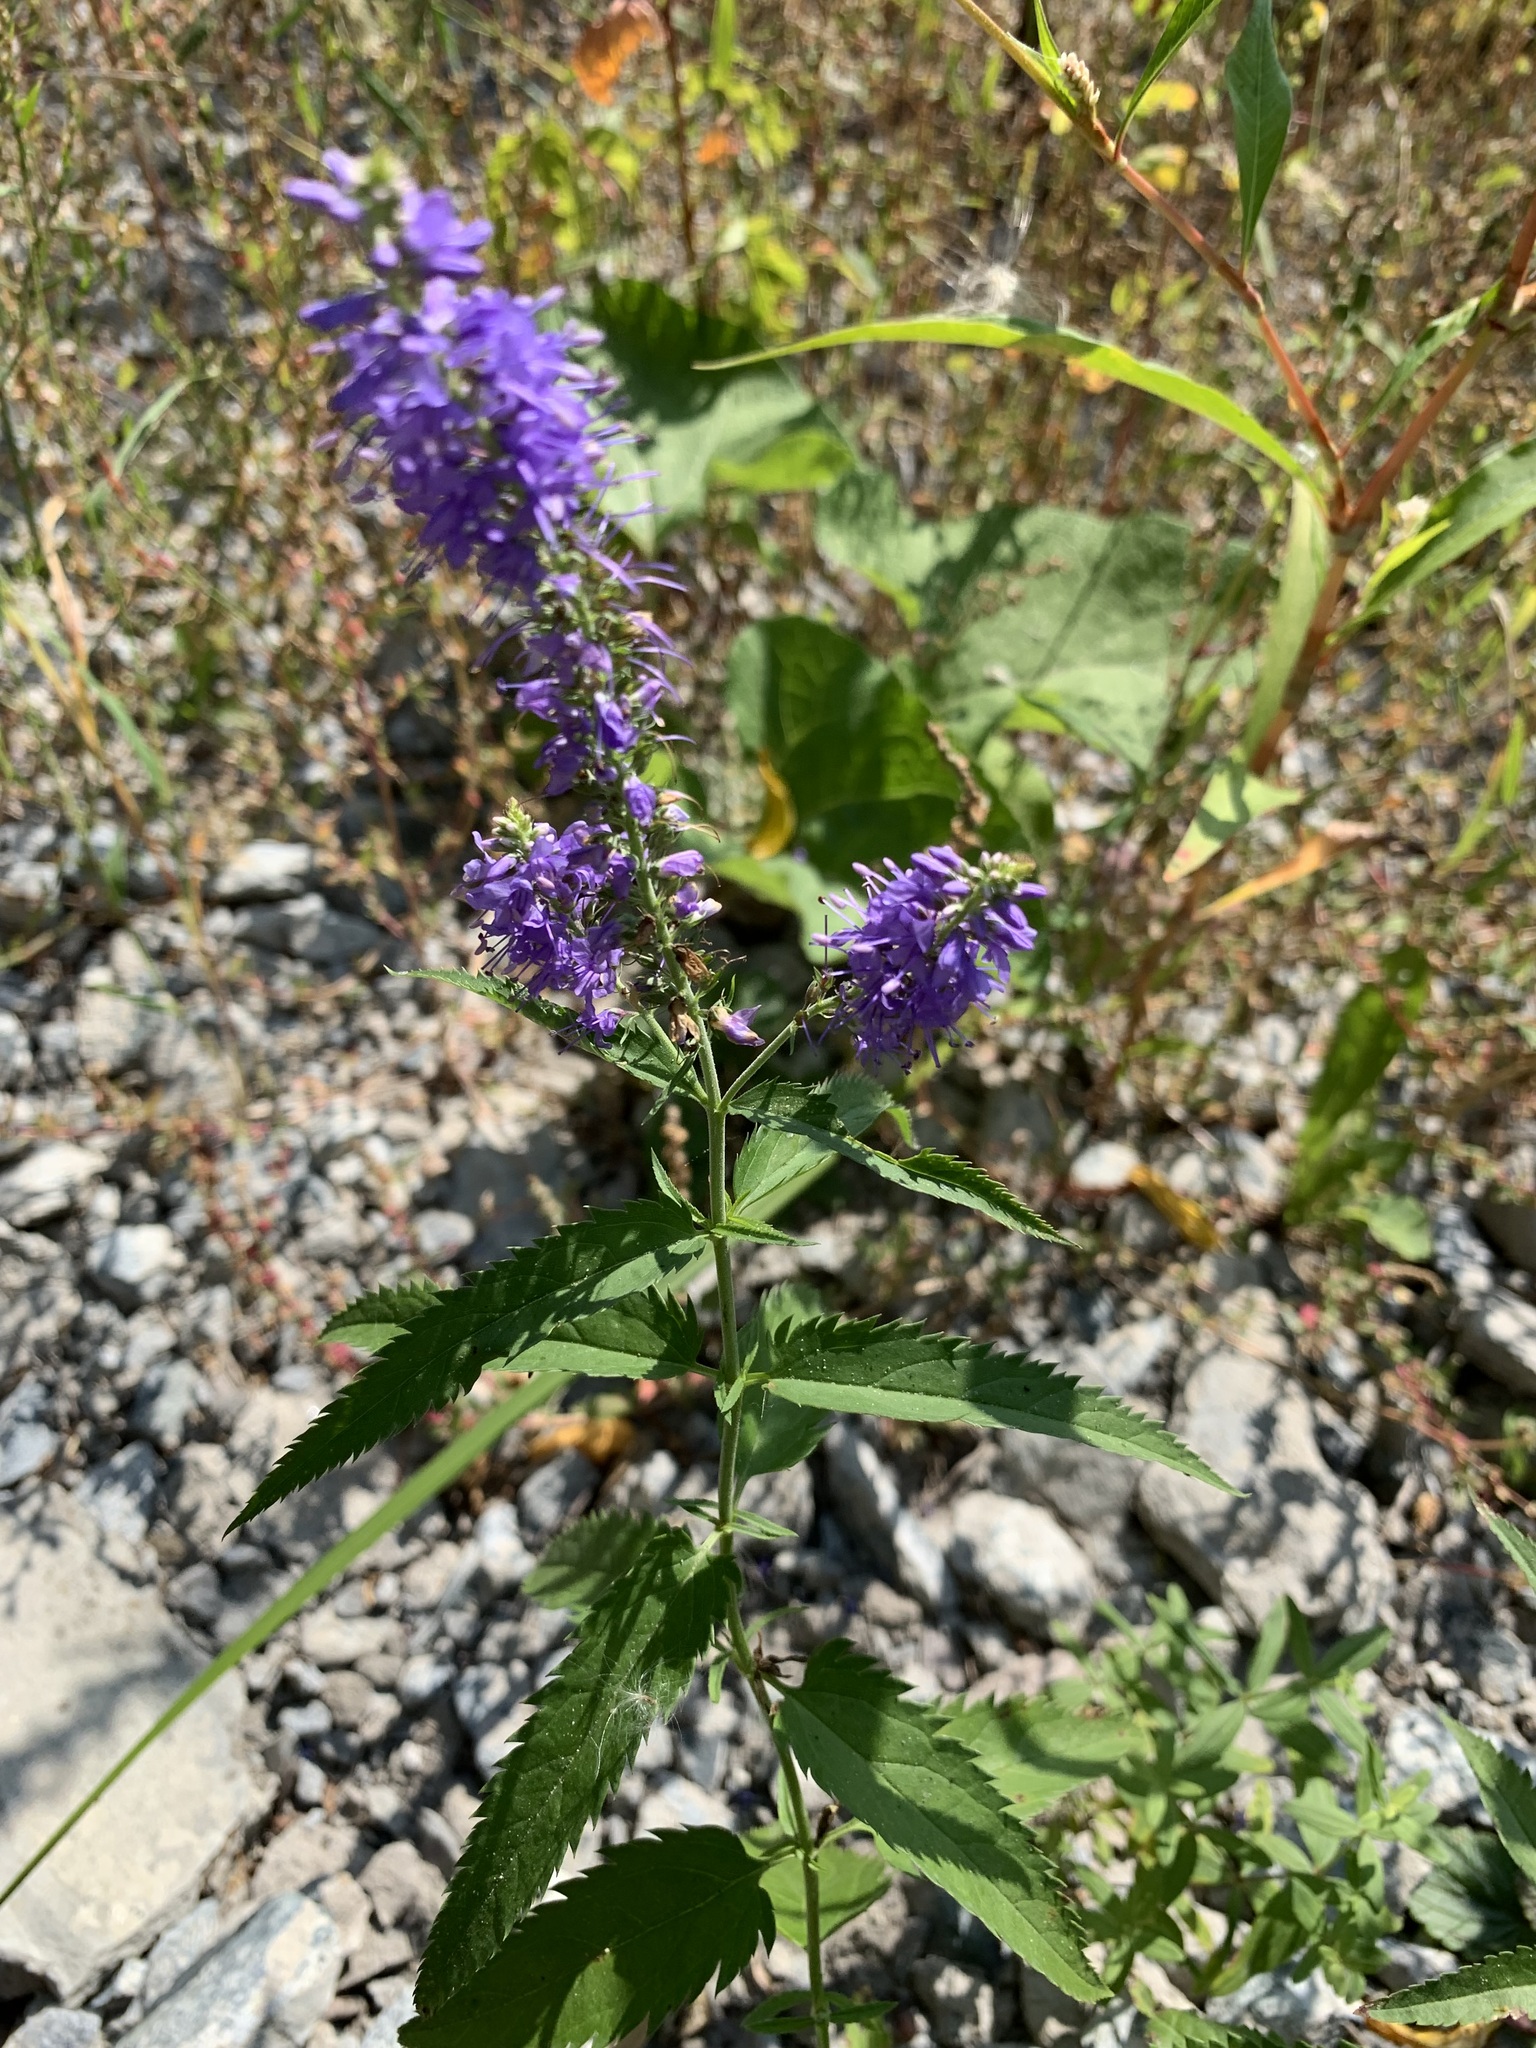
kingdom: Plantae
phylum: Tracheophyta
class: Magnoliopsida
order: Lamiales
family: Plantaginaceae
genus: Veronica
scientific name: Veronica longifolia
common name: Garden speedwell
